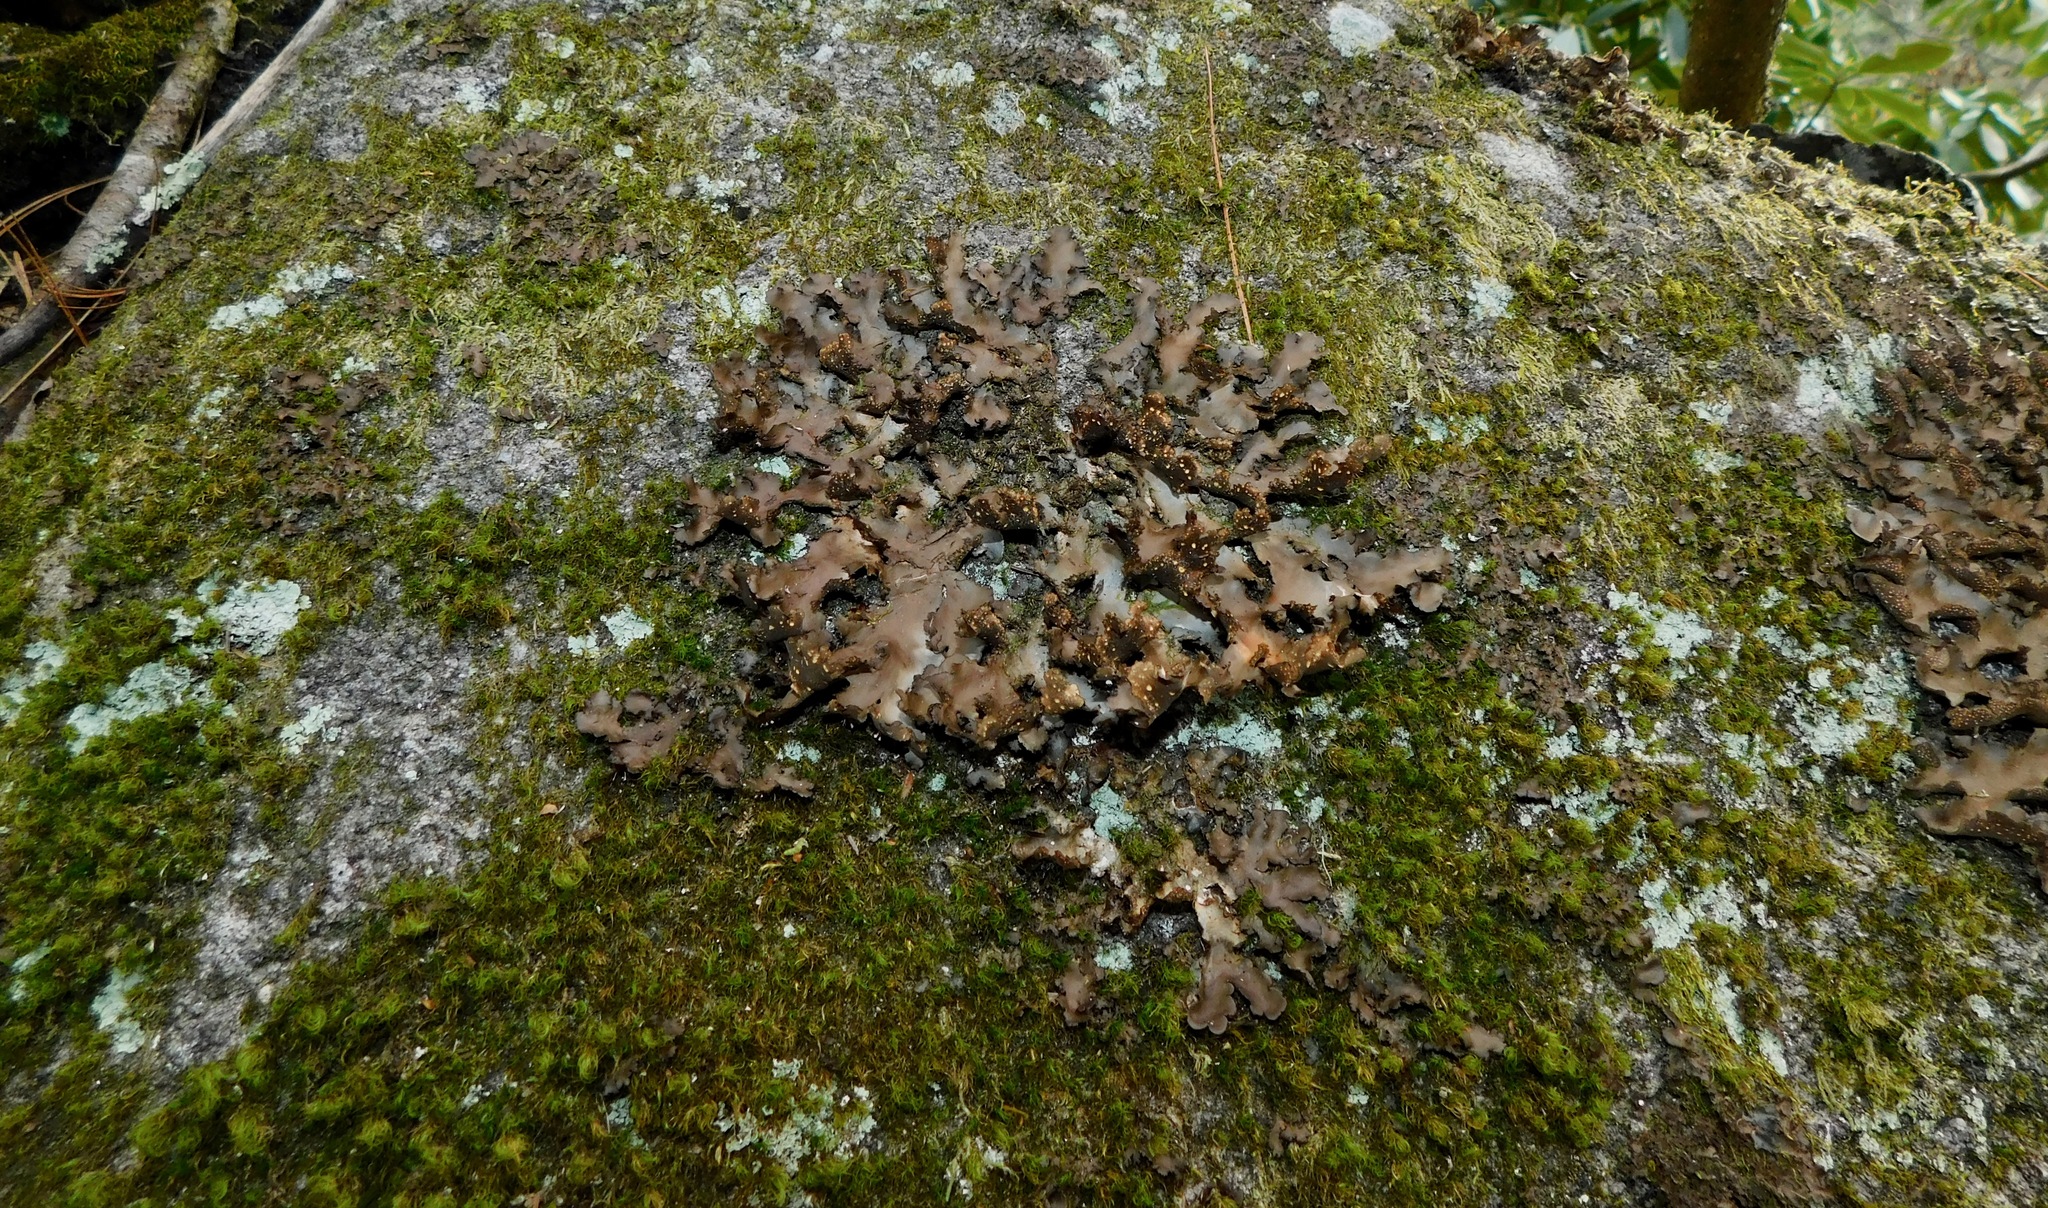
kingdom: Fungi
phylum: Ascomycota
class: Lecanoromycetes
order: Peltigerales
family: Lobariaceae
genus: Sticta
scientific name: Sticta fragilinata
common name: Tammy's pumpkin pails
